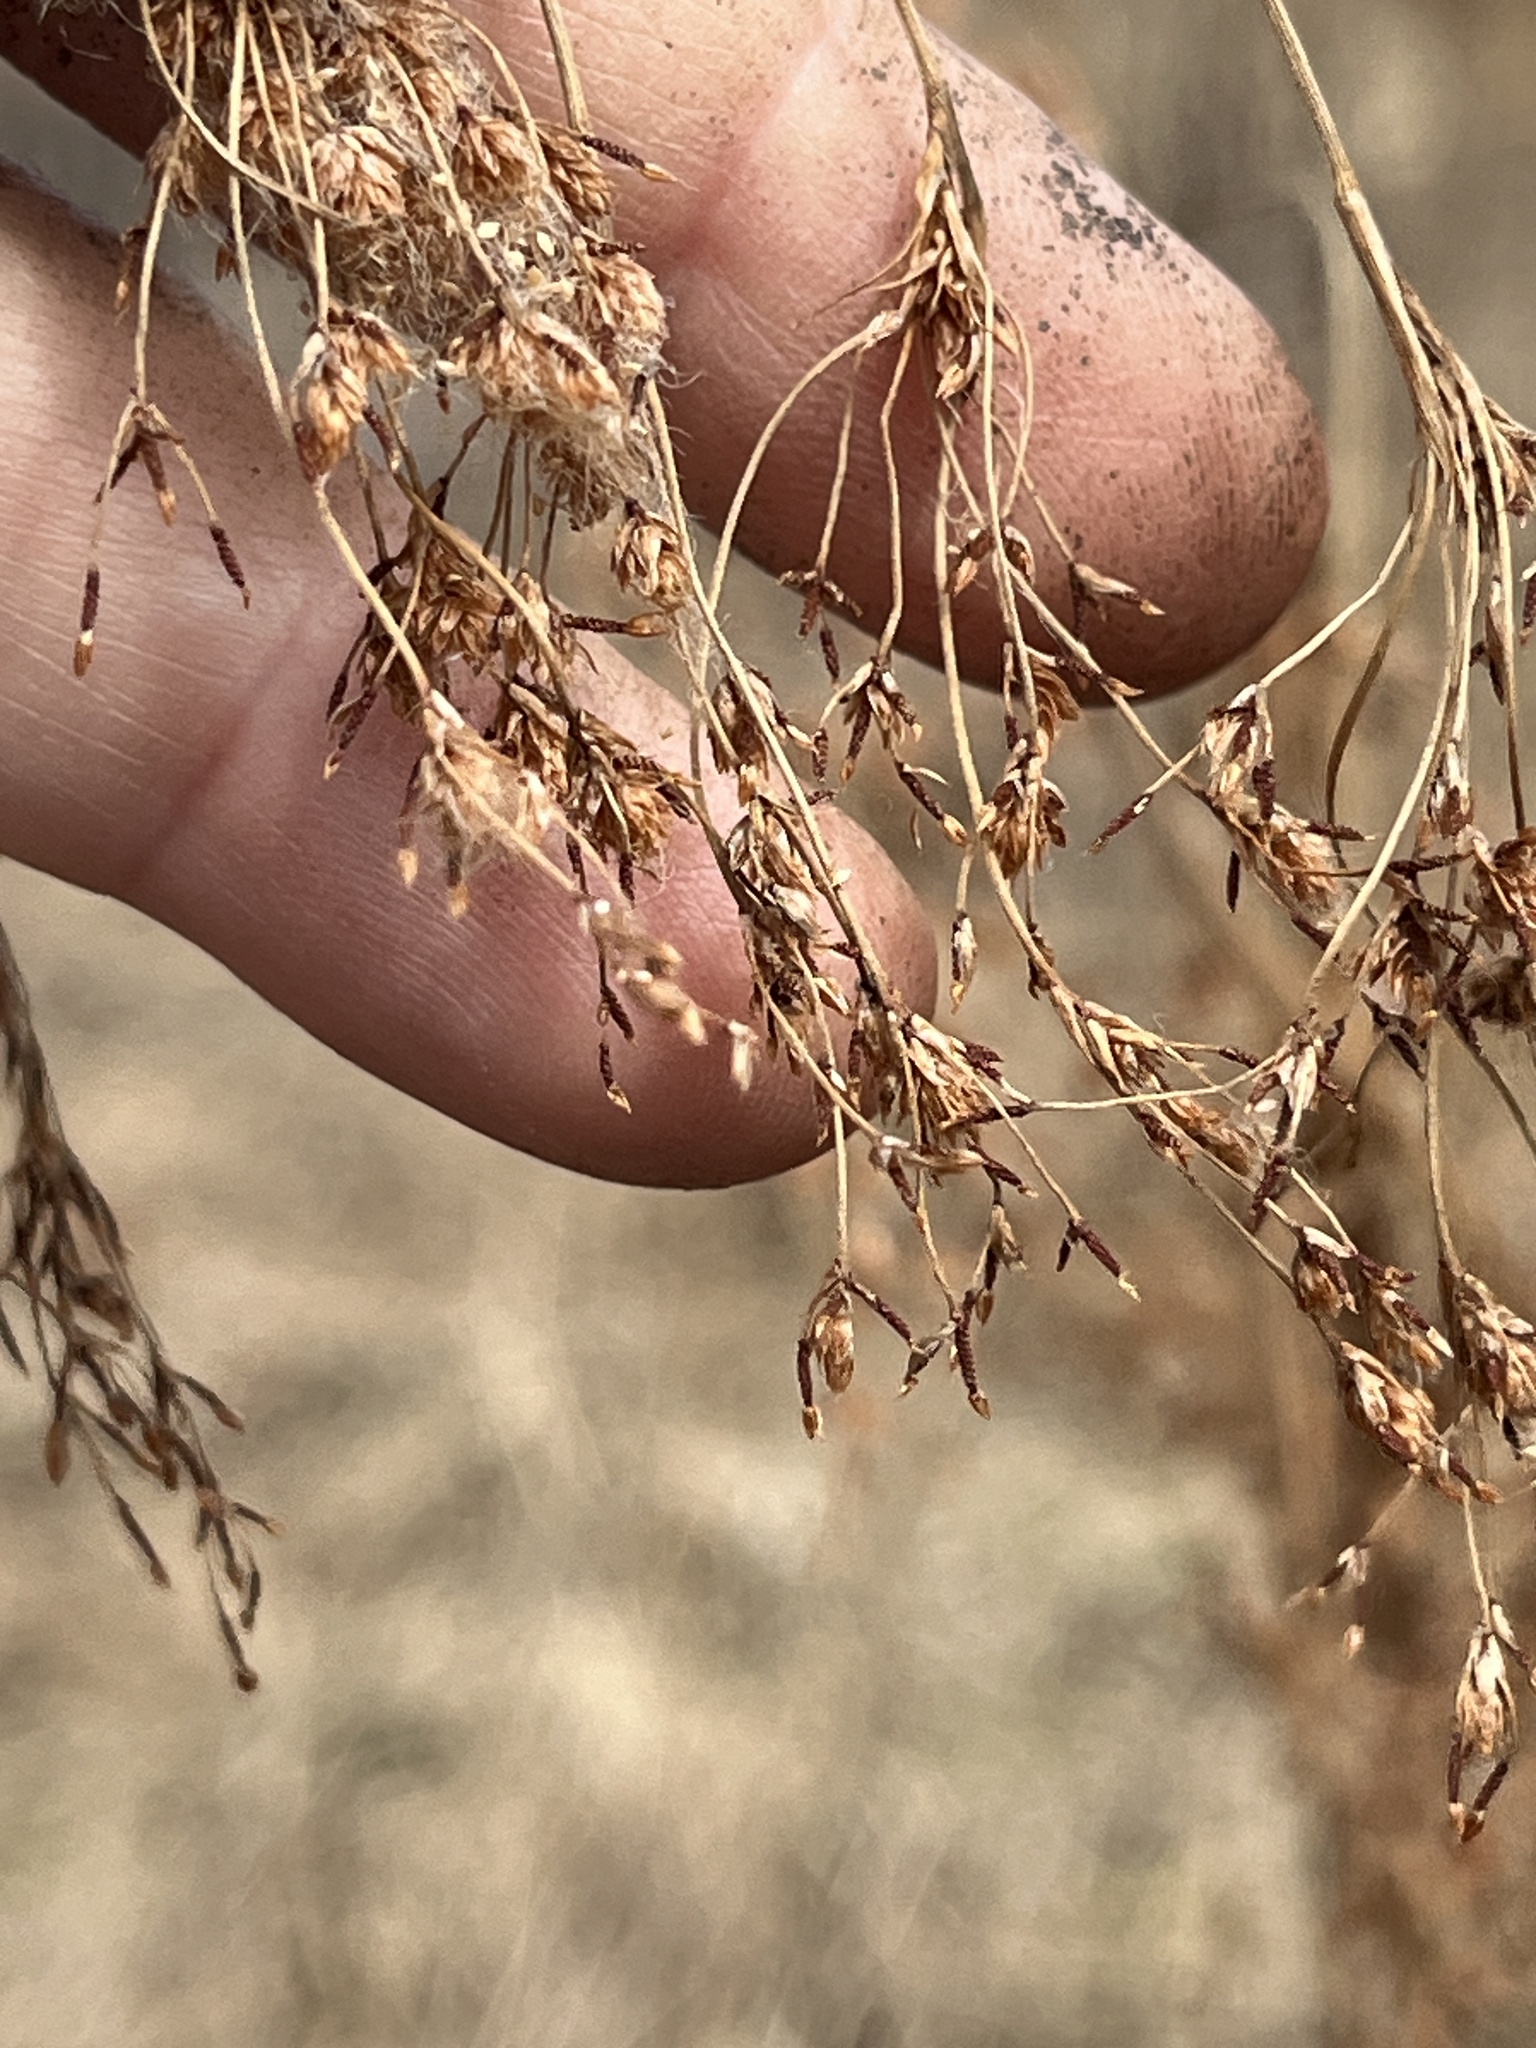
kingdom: Plantae
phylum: Tracheophyta
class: Liliopsida
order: Poales
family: Cyperaceae
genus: Scirpus
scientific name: Scirpus cyperinus
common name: Black-sheathed bulrush
